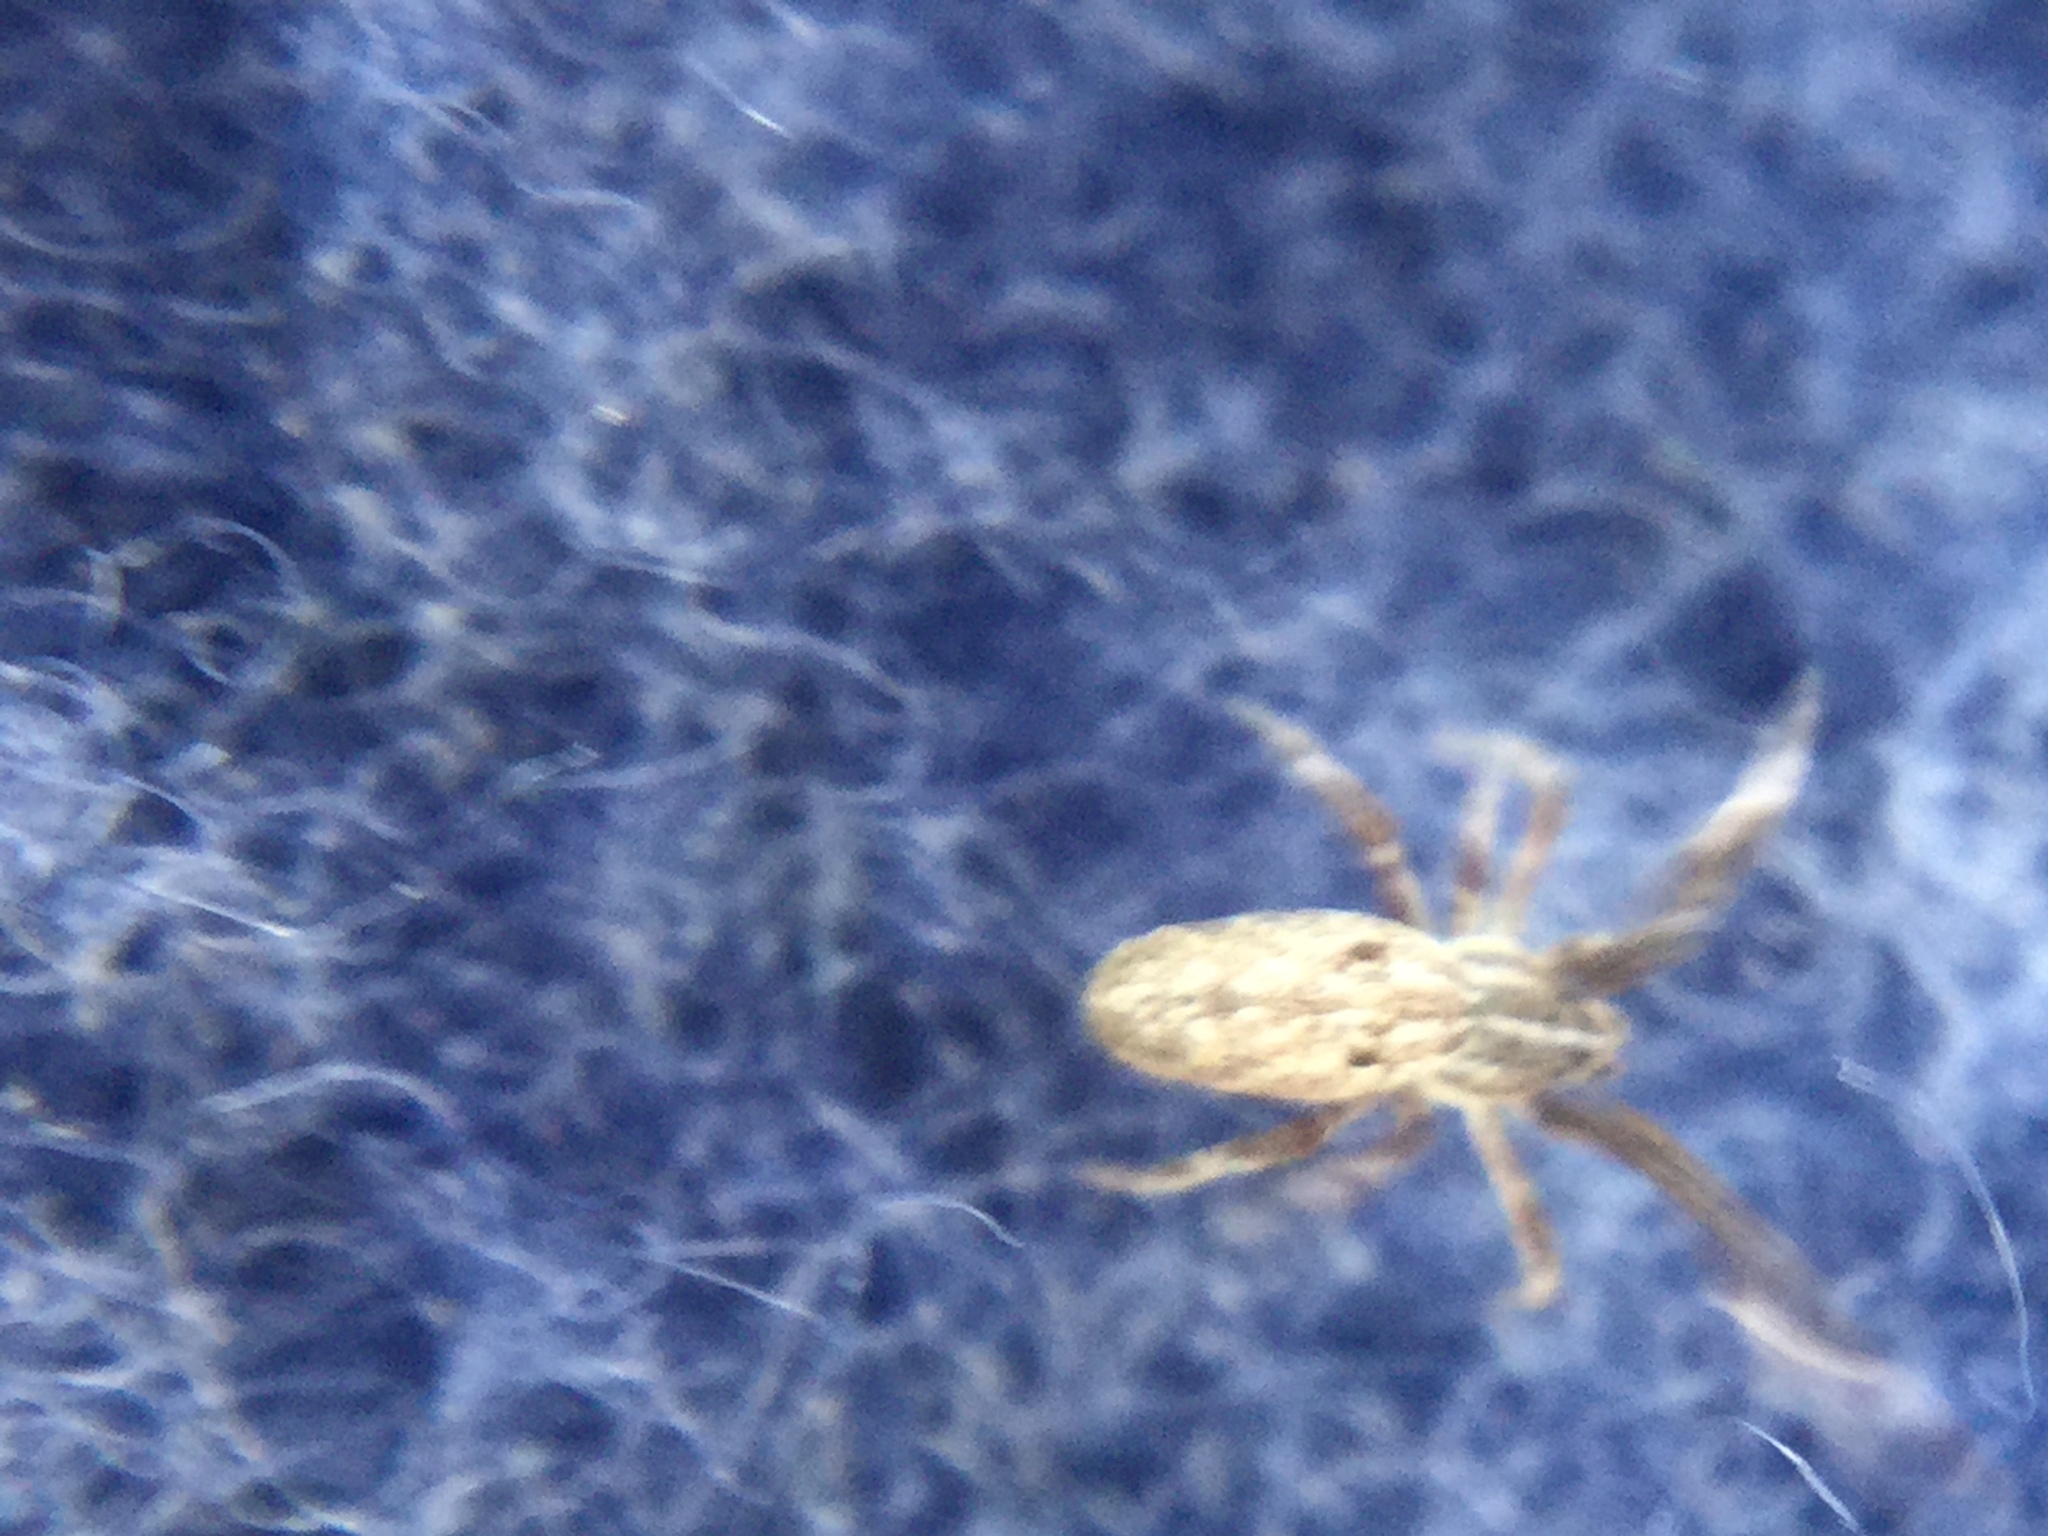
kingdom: Animalia
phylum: Arthropoda
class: Arachnida
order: Araneae
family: Uloboridae
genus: Uloborus
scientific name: Uloborus glomosus
